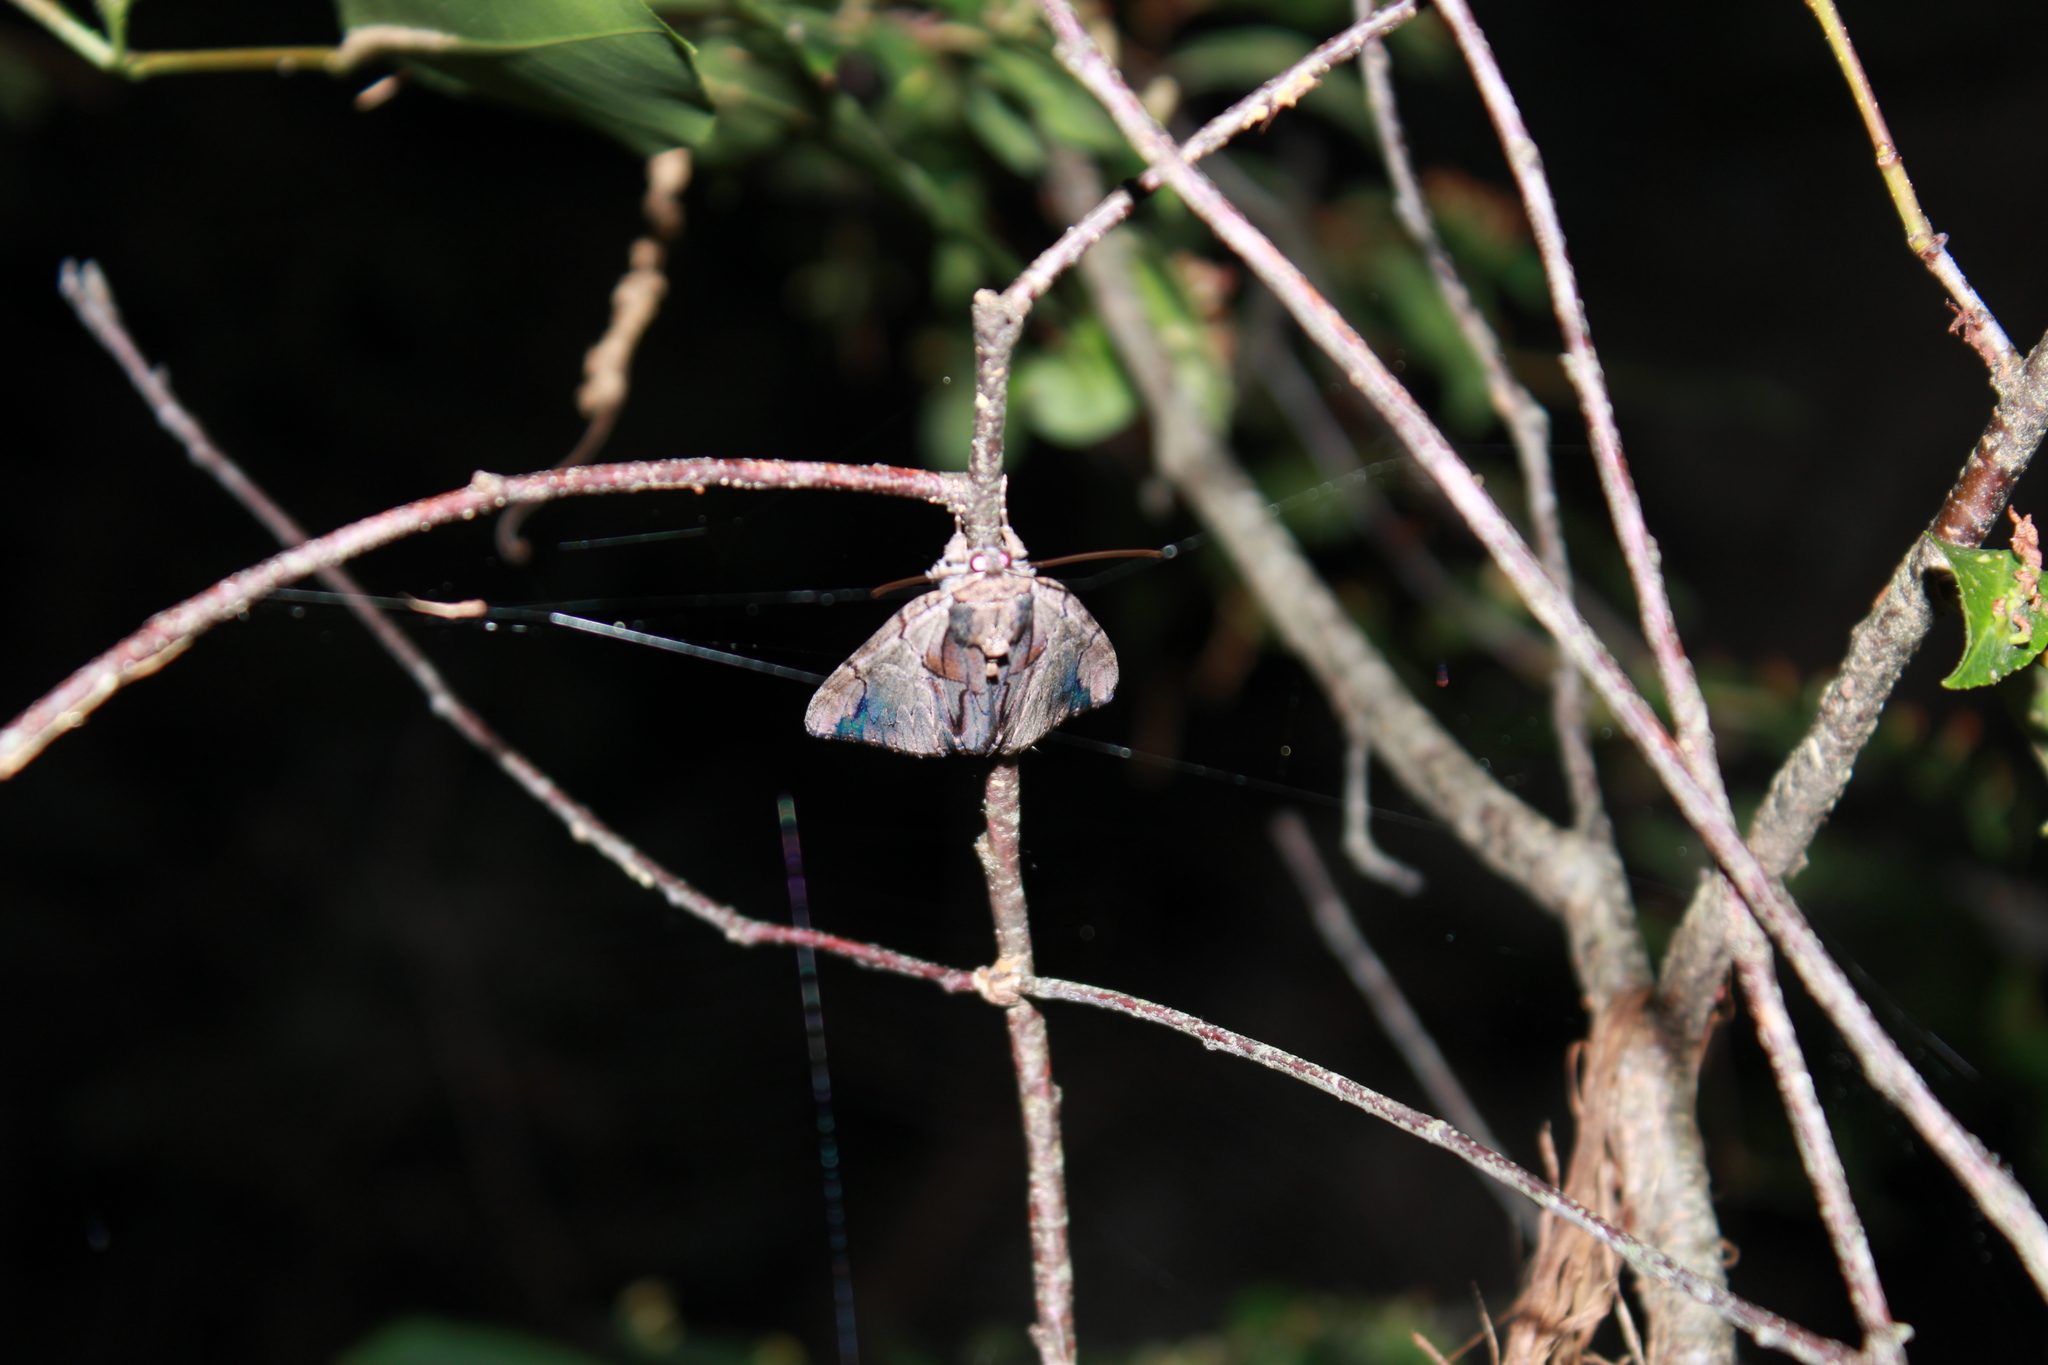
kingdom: Animalia
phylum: Arthropoda
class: Insecta
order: Lepidoptera
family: Erebidae
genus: Catocala
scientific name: Catocala ultronia
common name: Ultronia underwing
